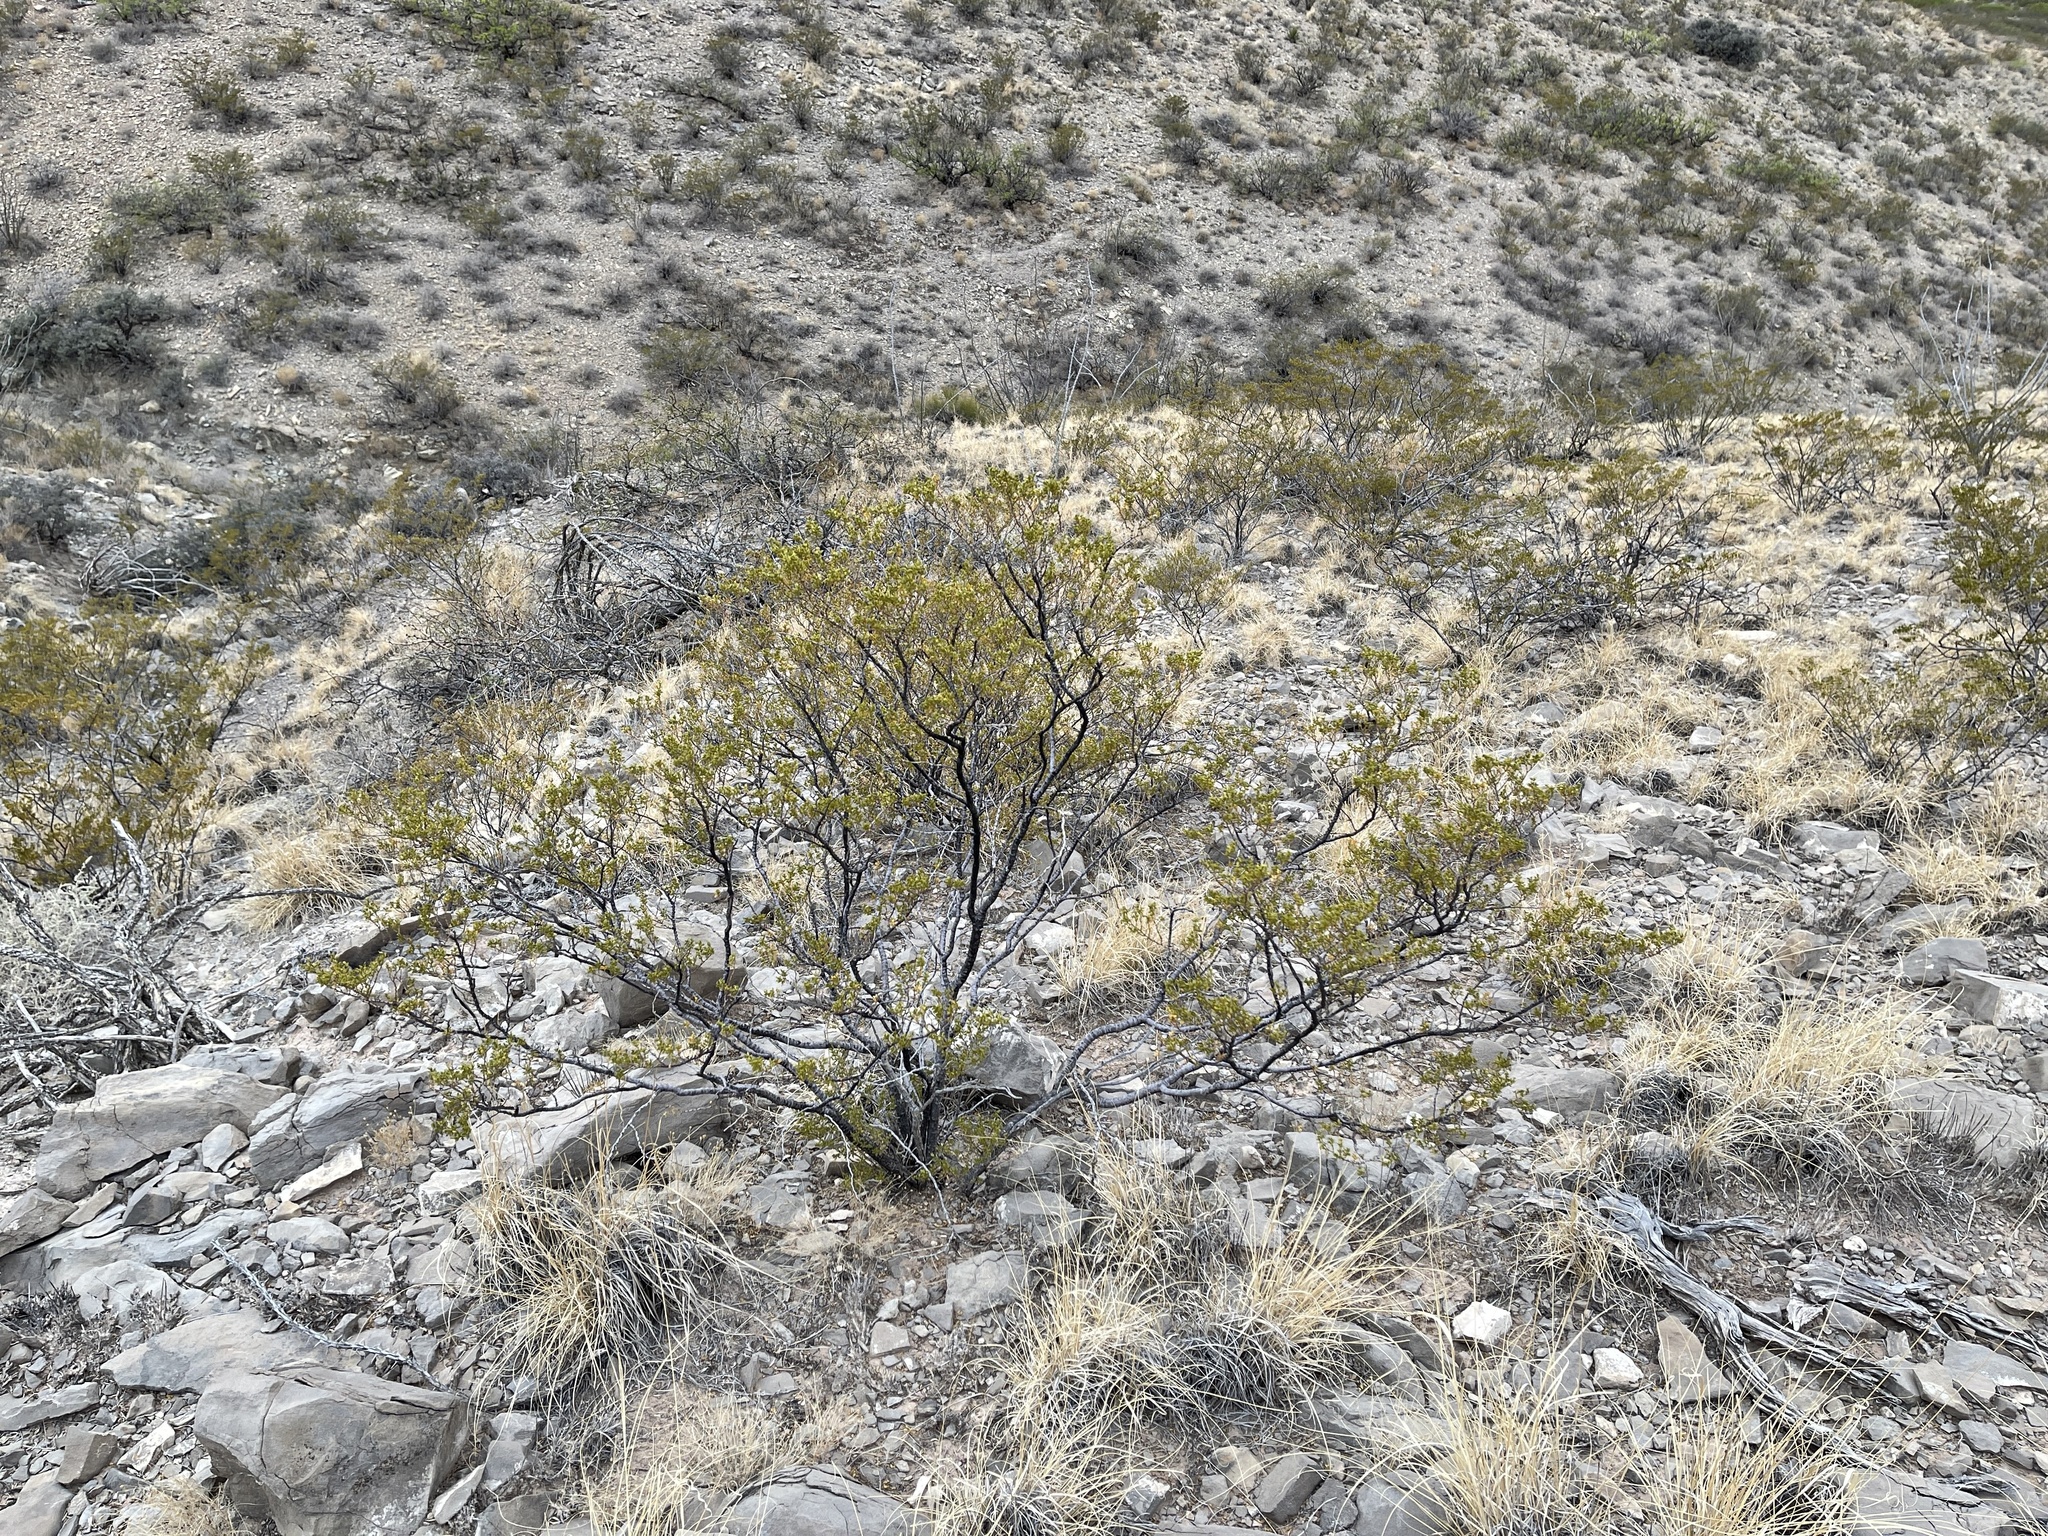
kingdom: Plantae
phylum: Tracheophyta
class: Magnoliopsida
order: Zygophyllales
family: Zygophyllaceae
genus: Larrea
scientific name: Larrea tridentata
